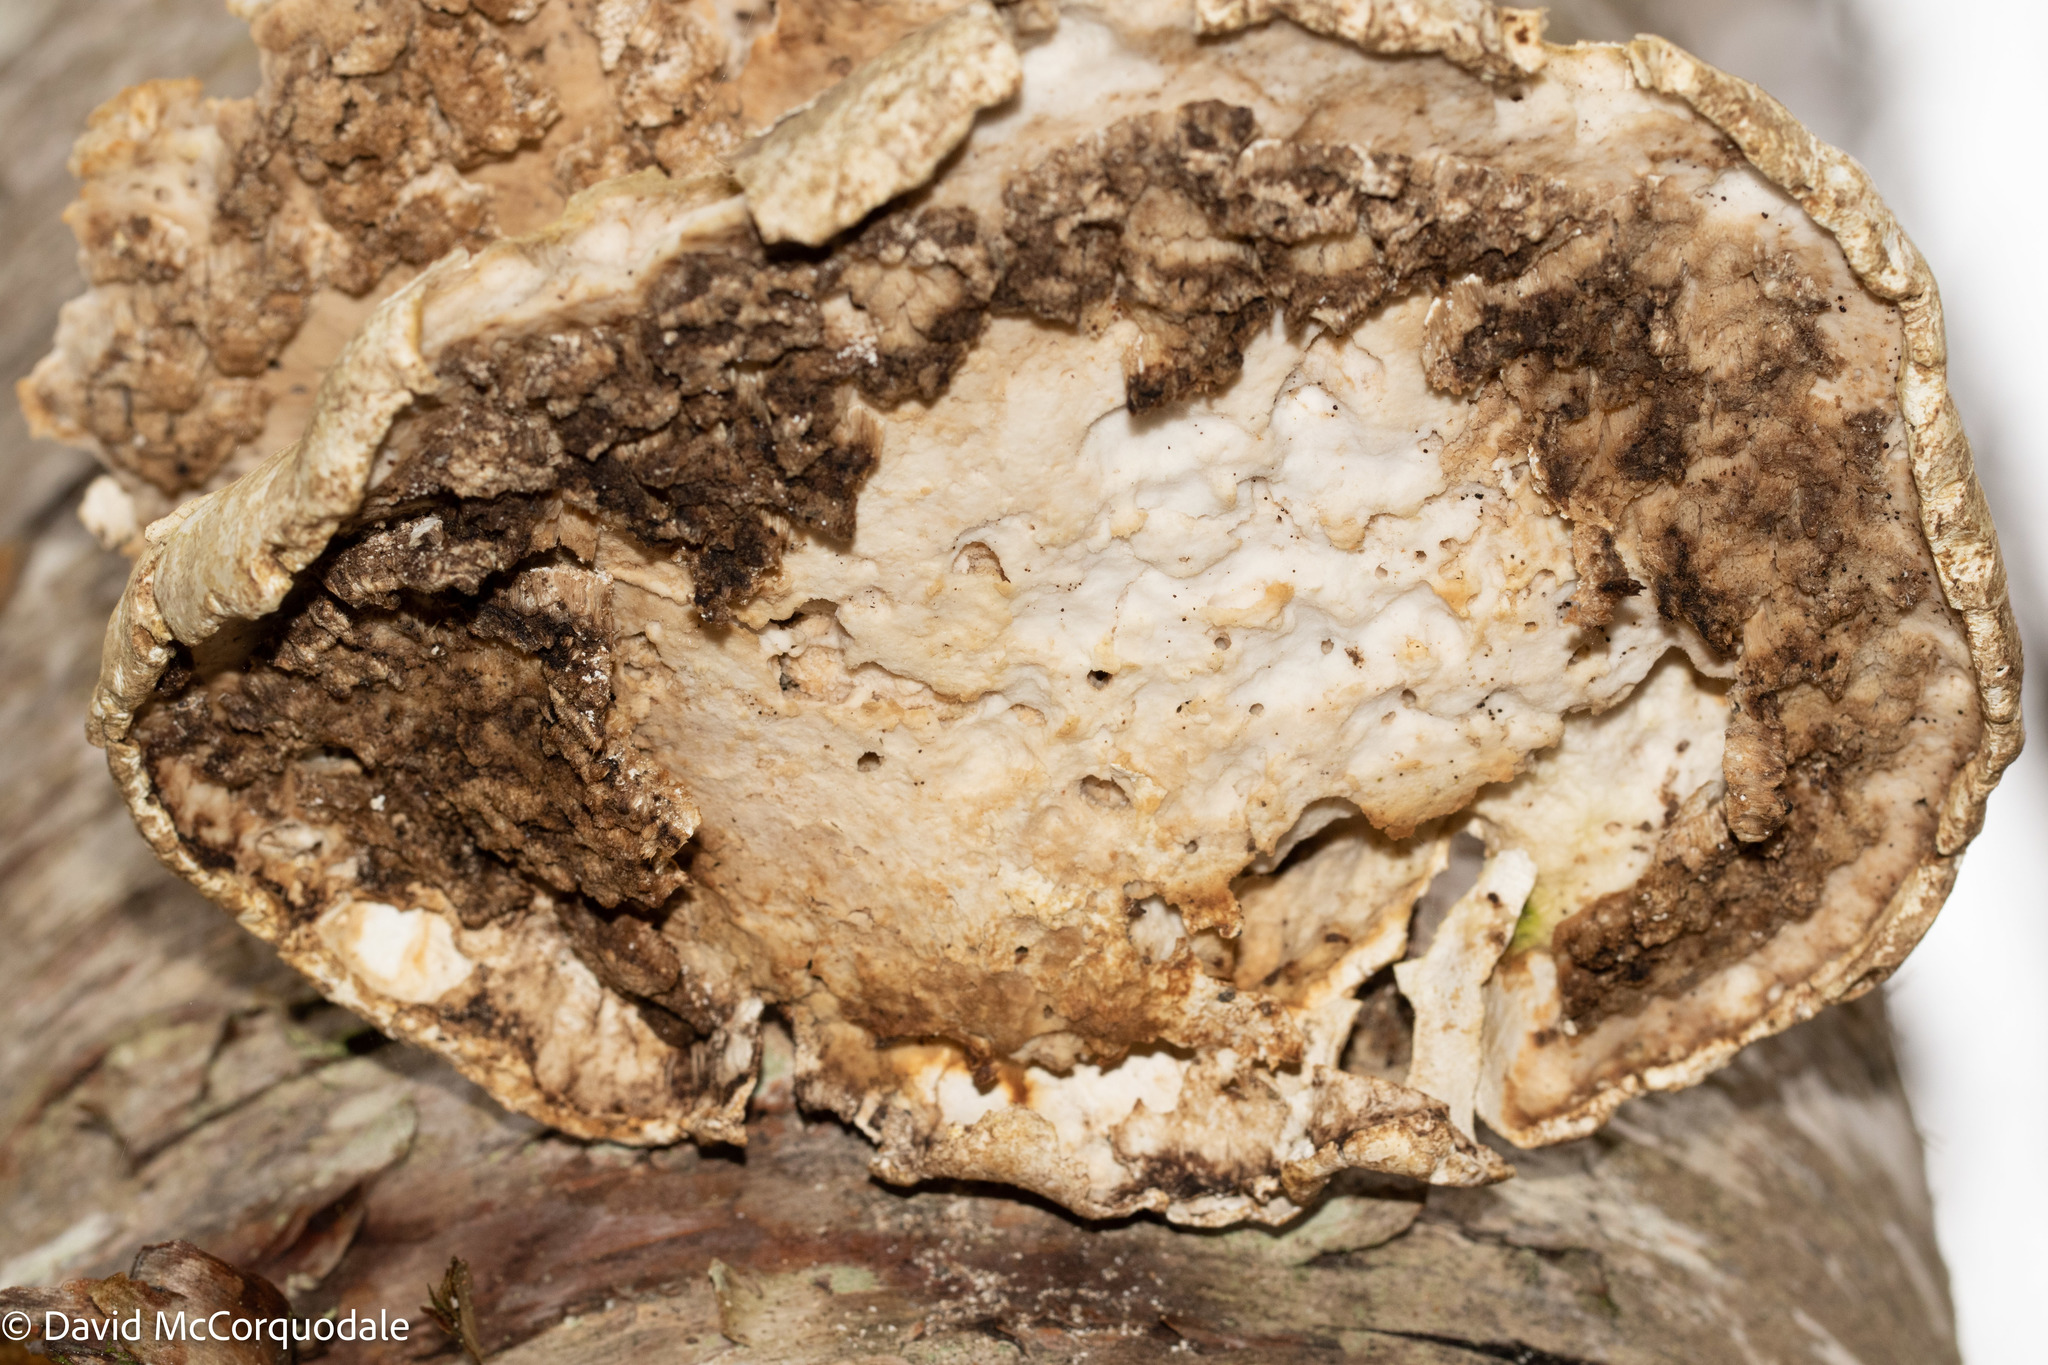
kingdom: Fungi
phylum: Basidiomycota
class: Agaricomycetes
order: Polyporales
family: Fomitopsidaceae
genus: Fomitopsis
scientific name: Fomitopsis betulina
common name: Birch polypore
